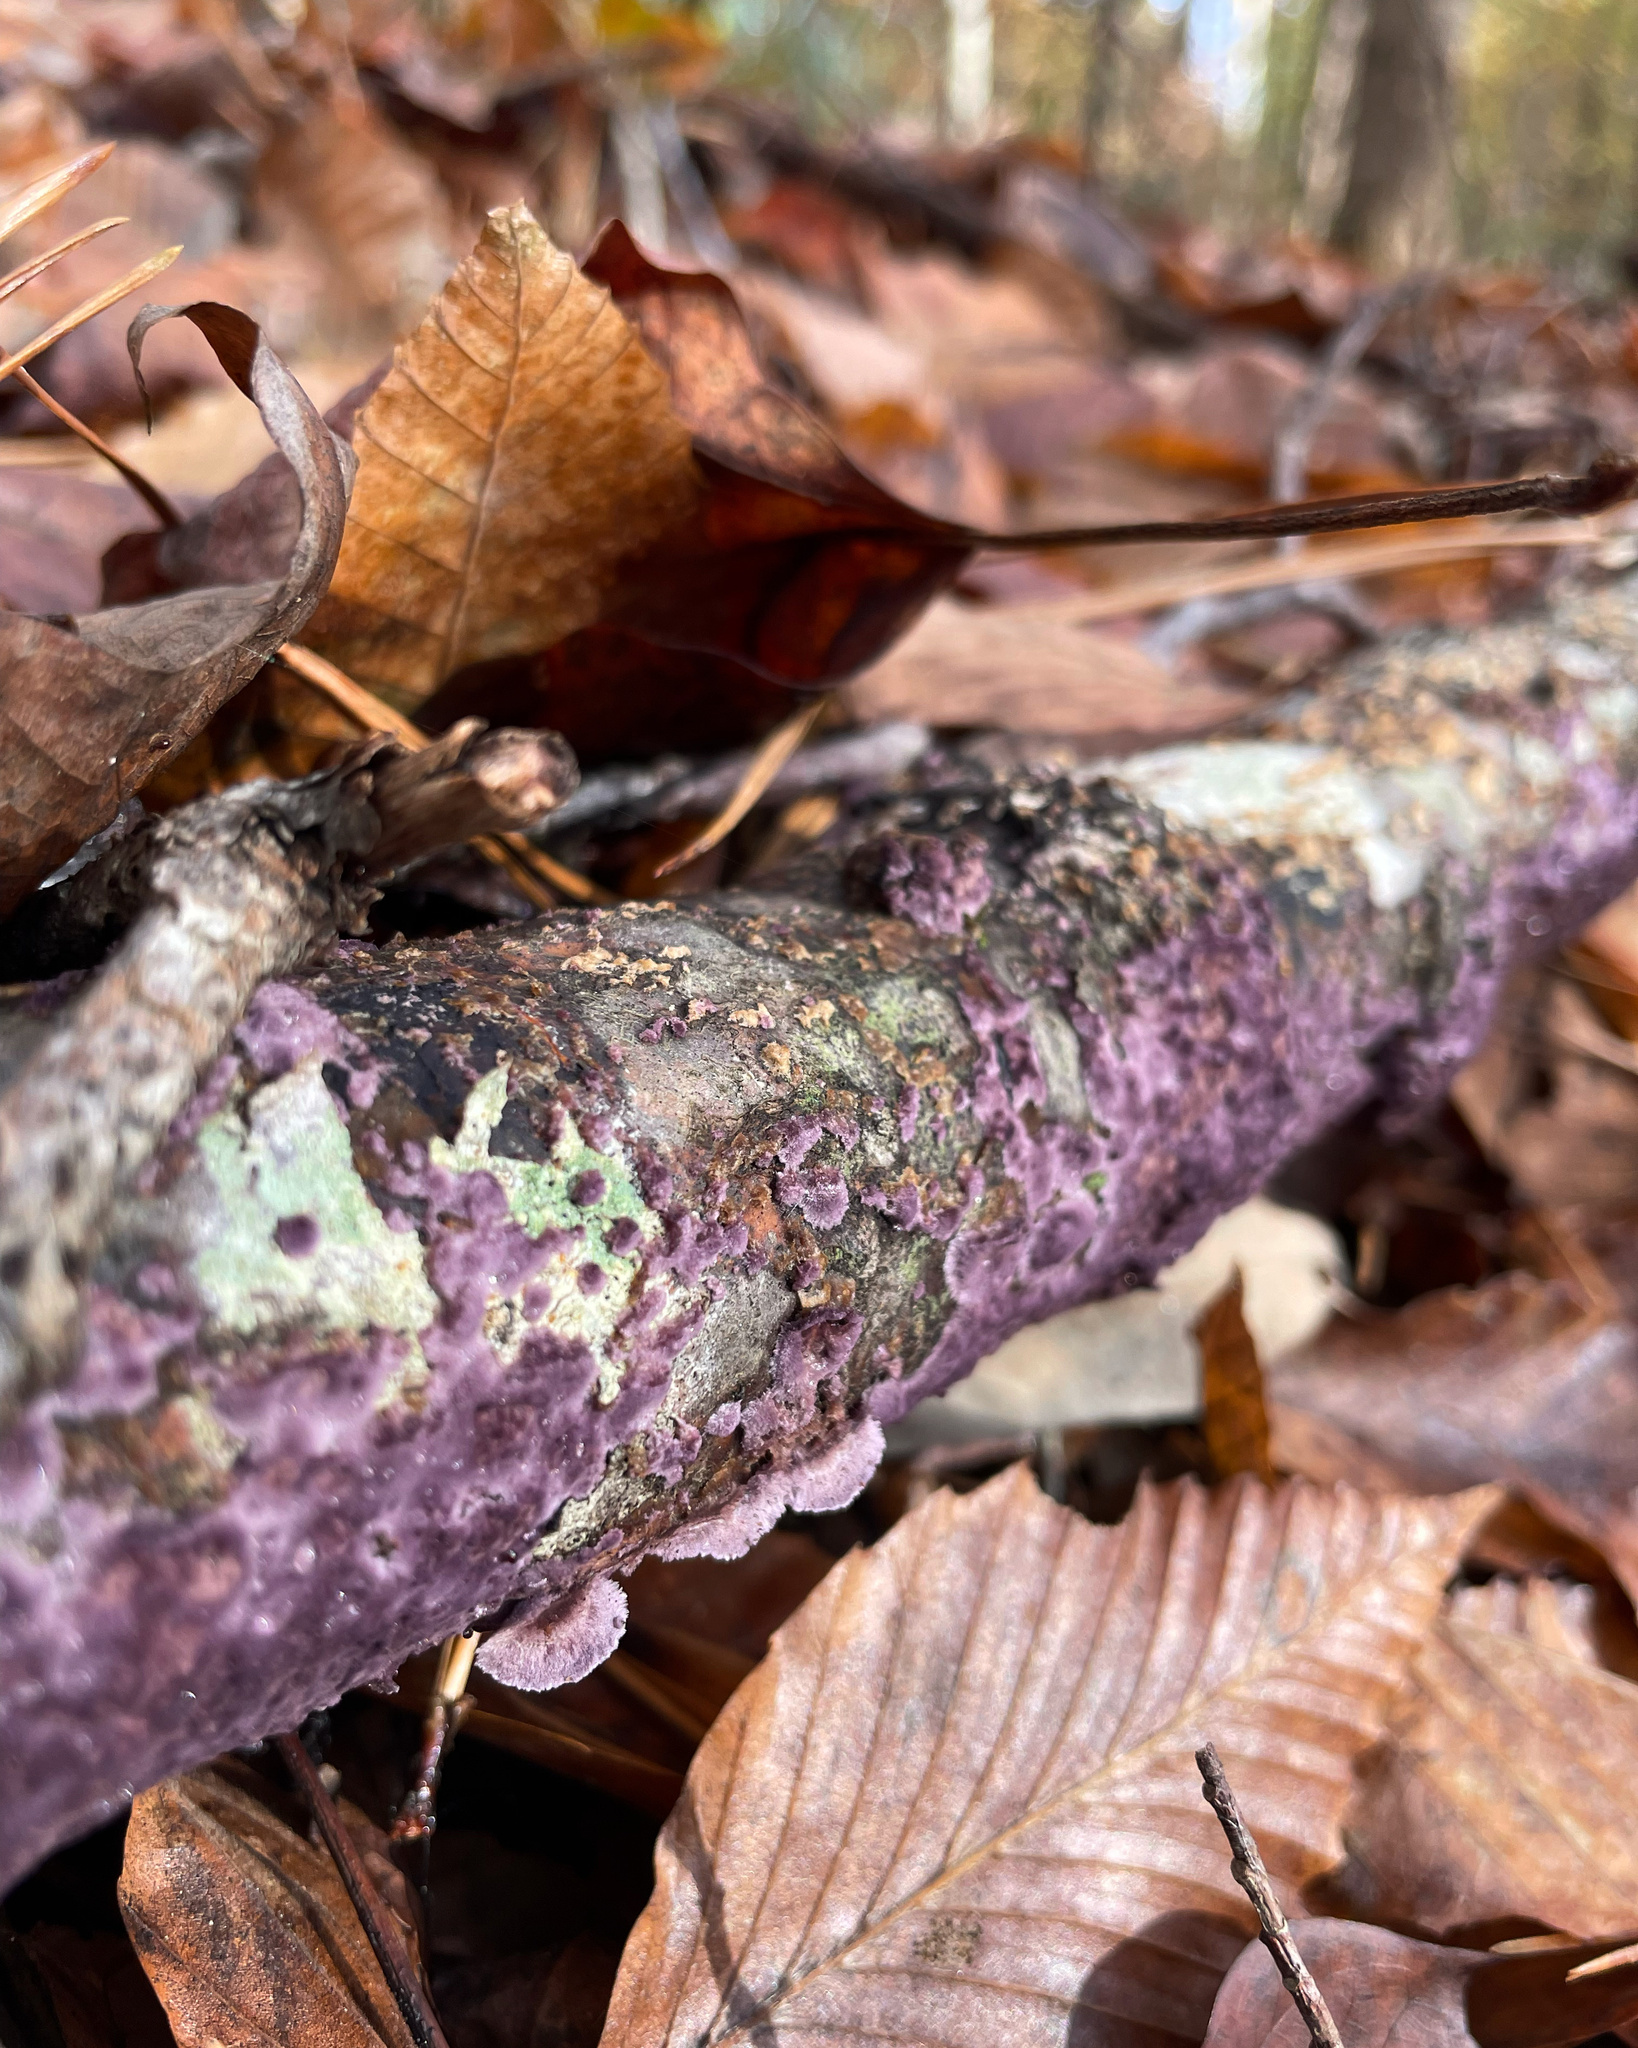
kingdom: Fungi
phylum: Basidiomycota
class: Agaricomycetes
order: Polyporales
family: Phanerochaetaceae
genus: Phlebiopsis
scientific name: Phlebiopsis crassa
